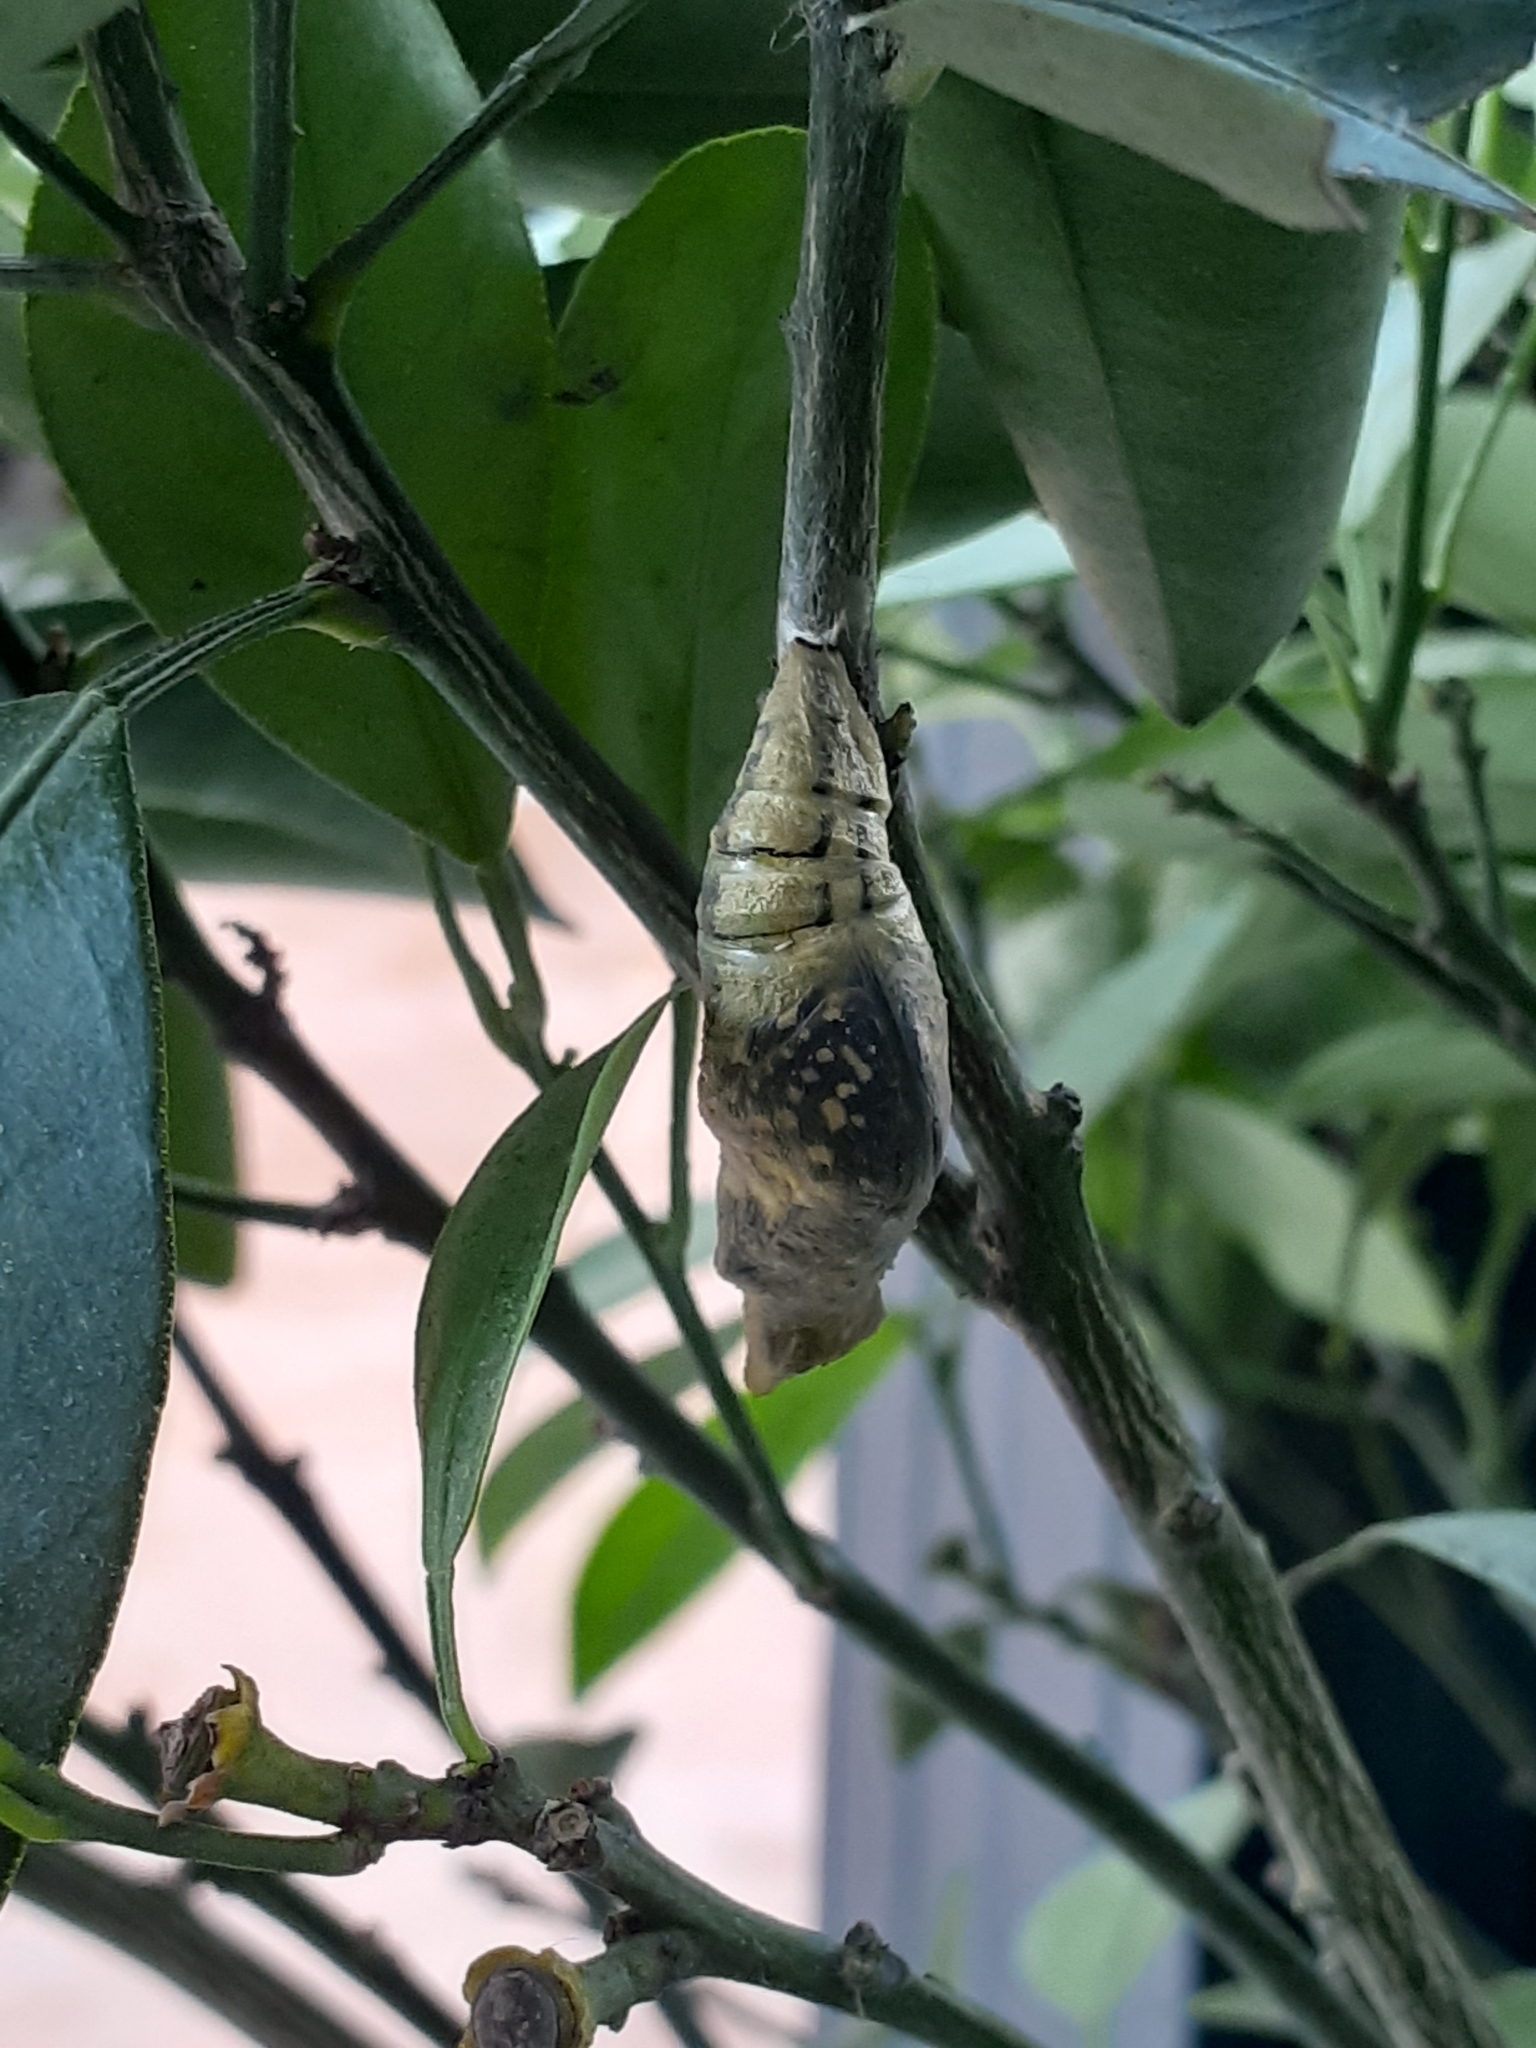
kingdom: Animalia
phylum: Arthropoda
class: Insecta
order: Lepidoptera
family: Papilionidae
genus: Papilio
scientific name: Papilio demoleus
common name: Lime butterfly
